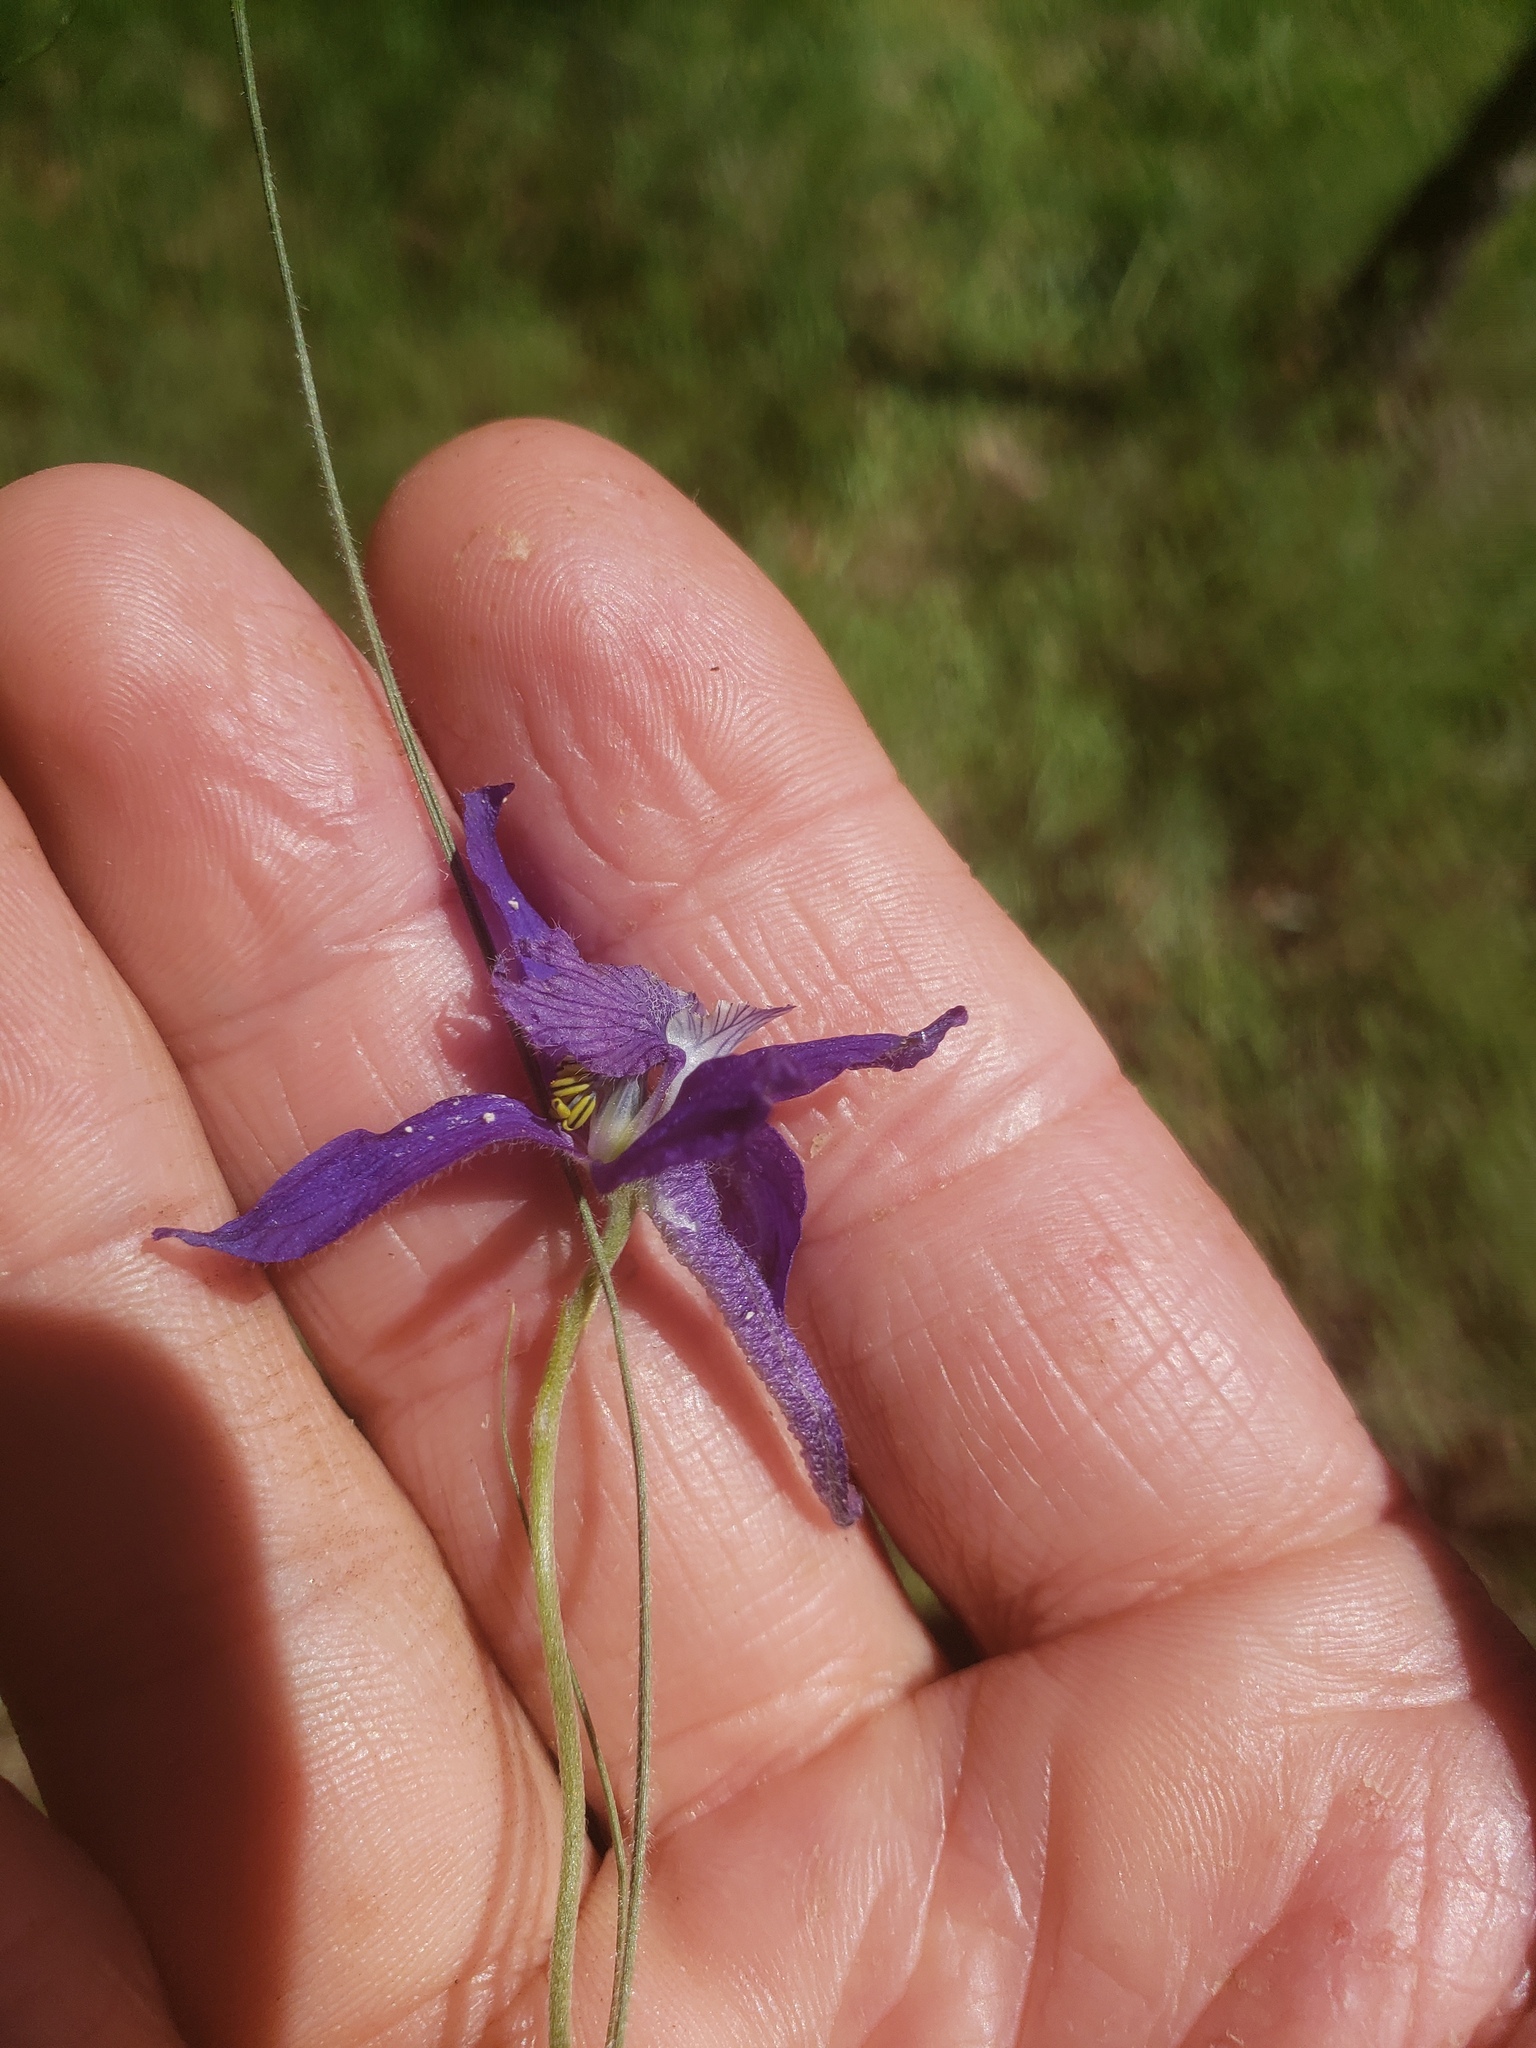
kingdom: Plantae
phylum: Tracheophyta
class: Magnoliopsida
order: Ranunculales
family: Ranunculaceae
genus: Delphinium
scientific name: Delphinium nuttallianum
